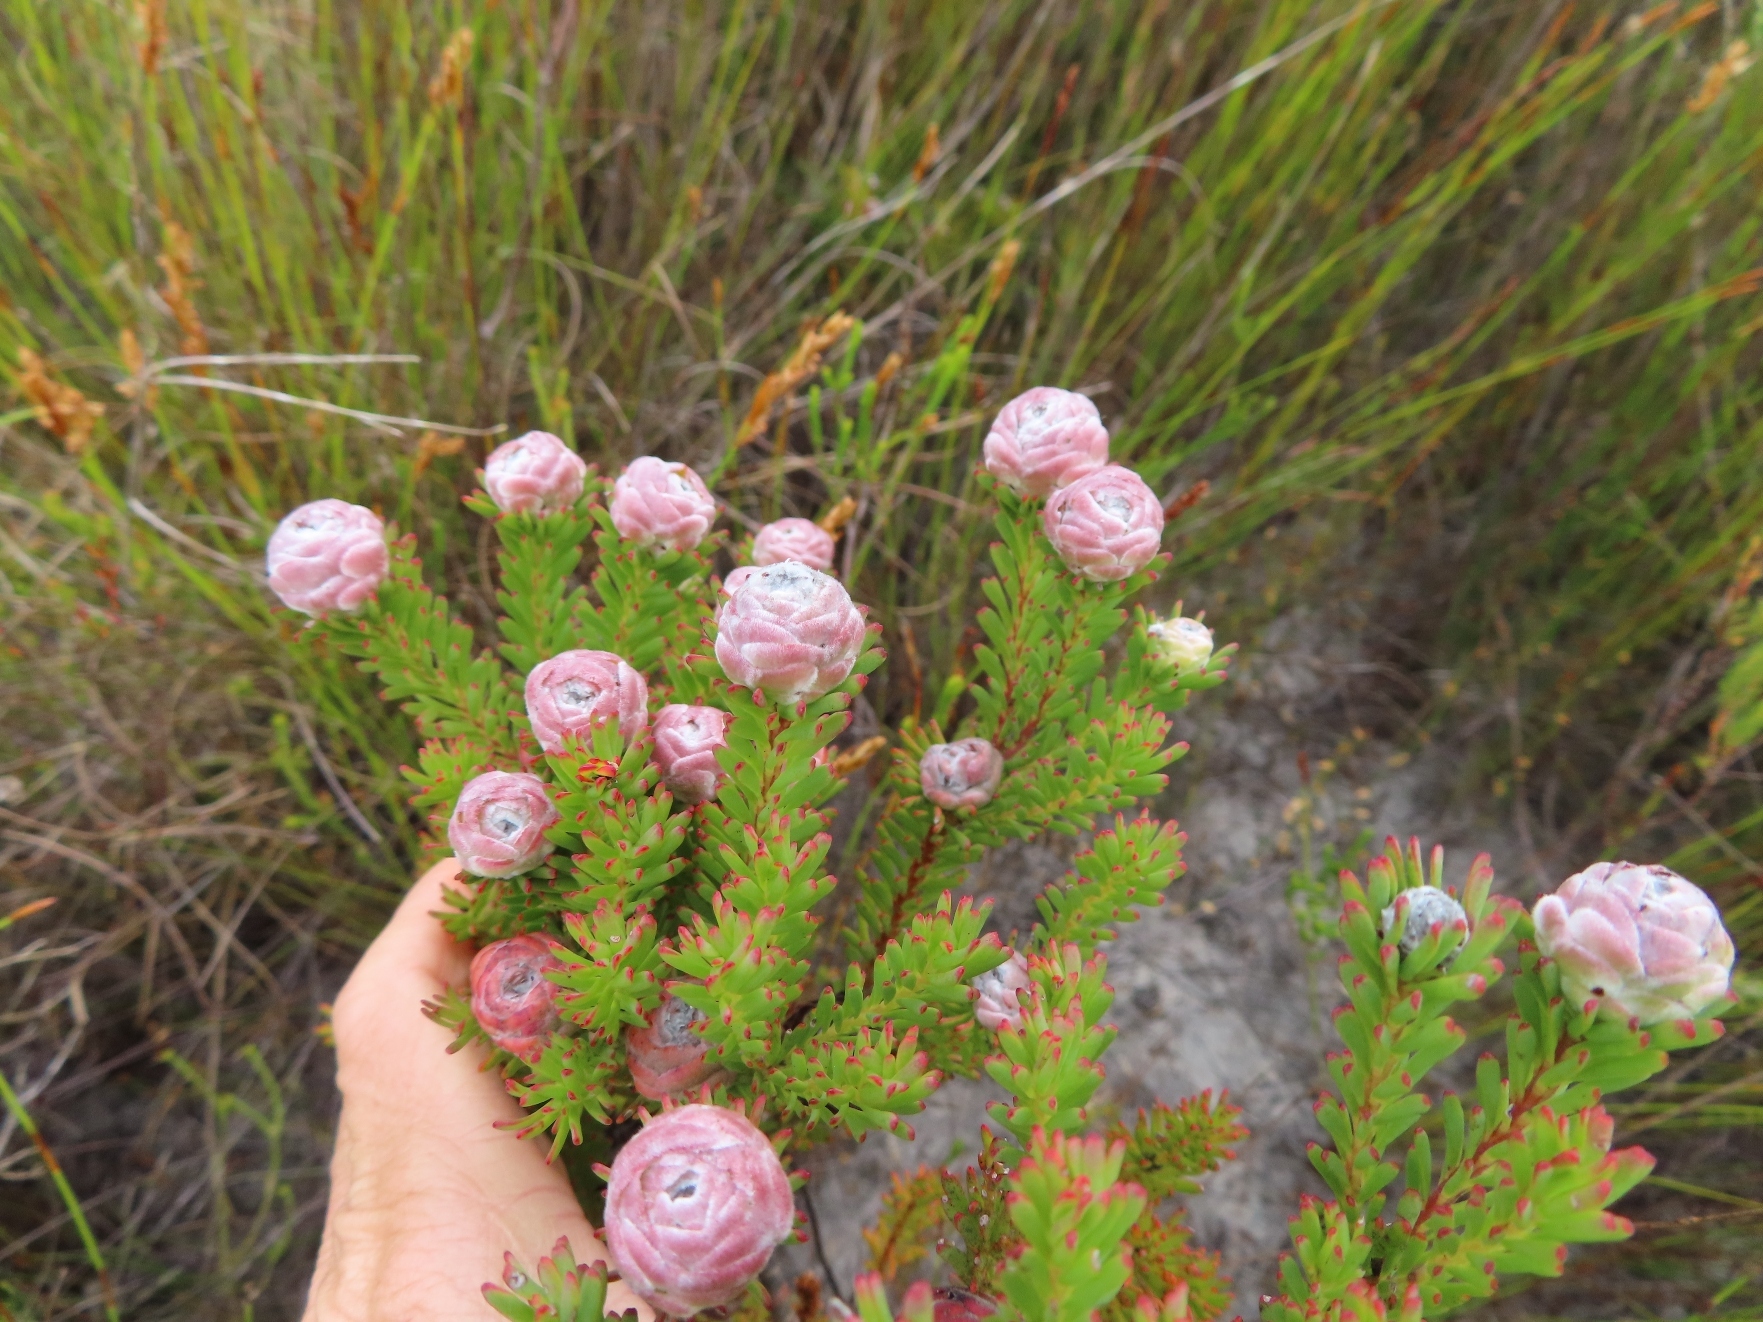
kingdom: Plantae
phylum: Tracheophyta
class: Magnoliopsida
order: Proteales
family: Proteaceae
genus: Leucadendron
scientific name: Leucadendron linifolium
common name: Line-leaf conebush
